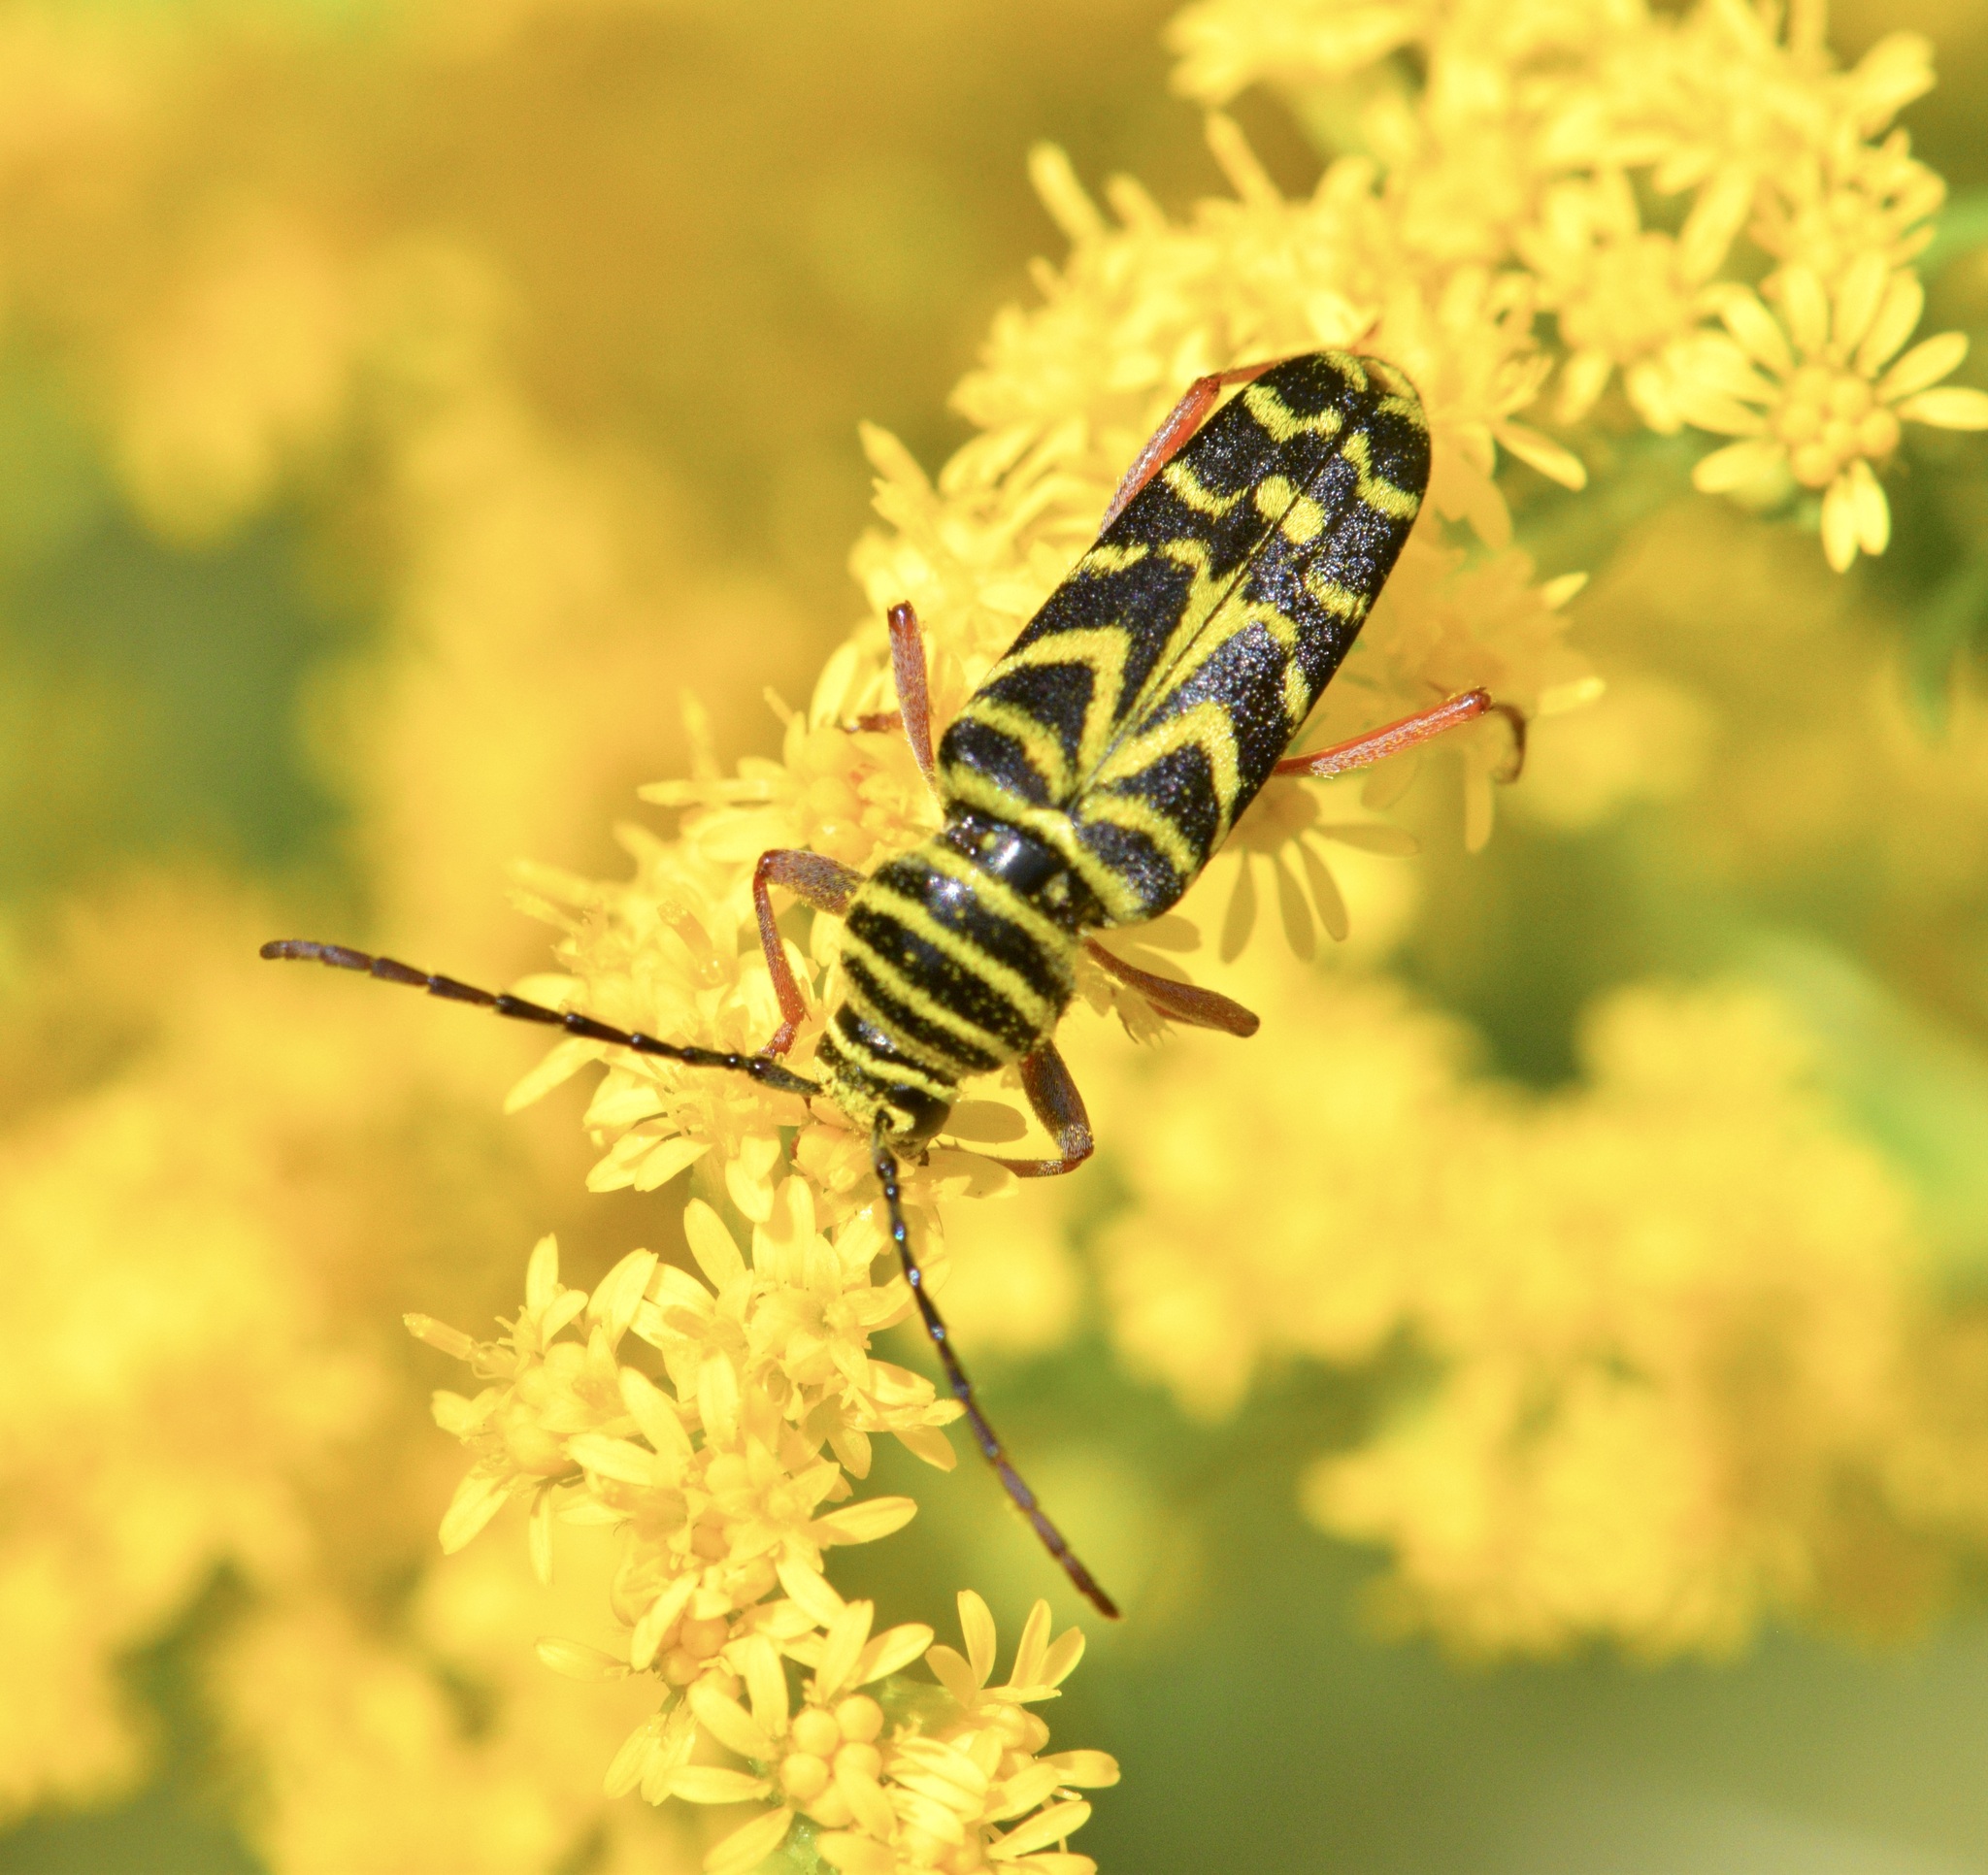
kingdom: Animalia
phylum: Arthropoda
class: Insecta
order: Coleoptera
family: Cerambycidae
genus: Megacyllene
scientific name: Megacyllene robiniae
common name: Locust borer
